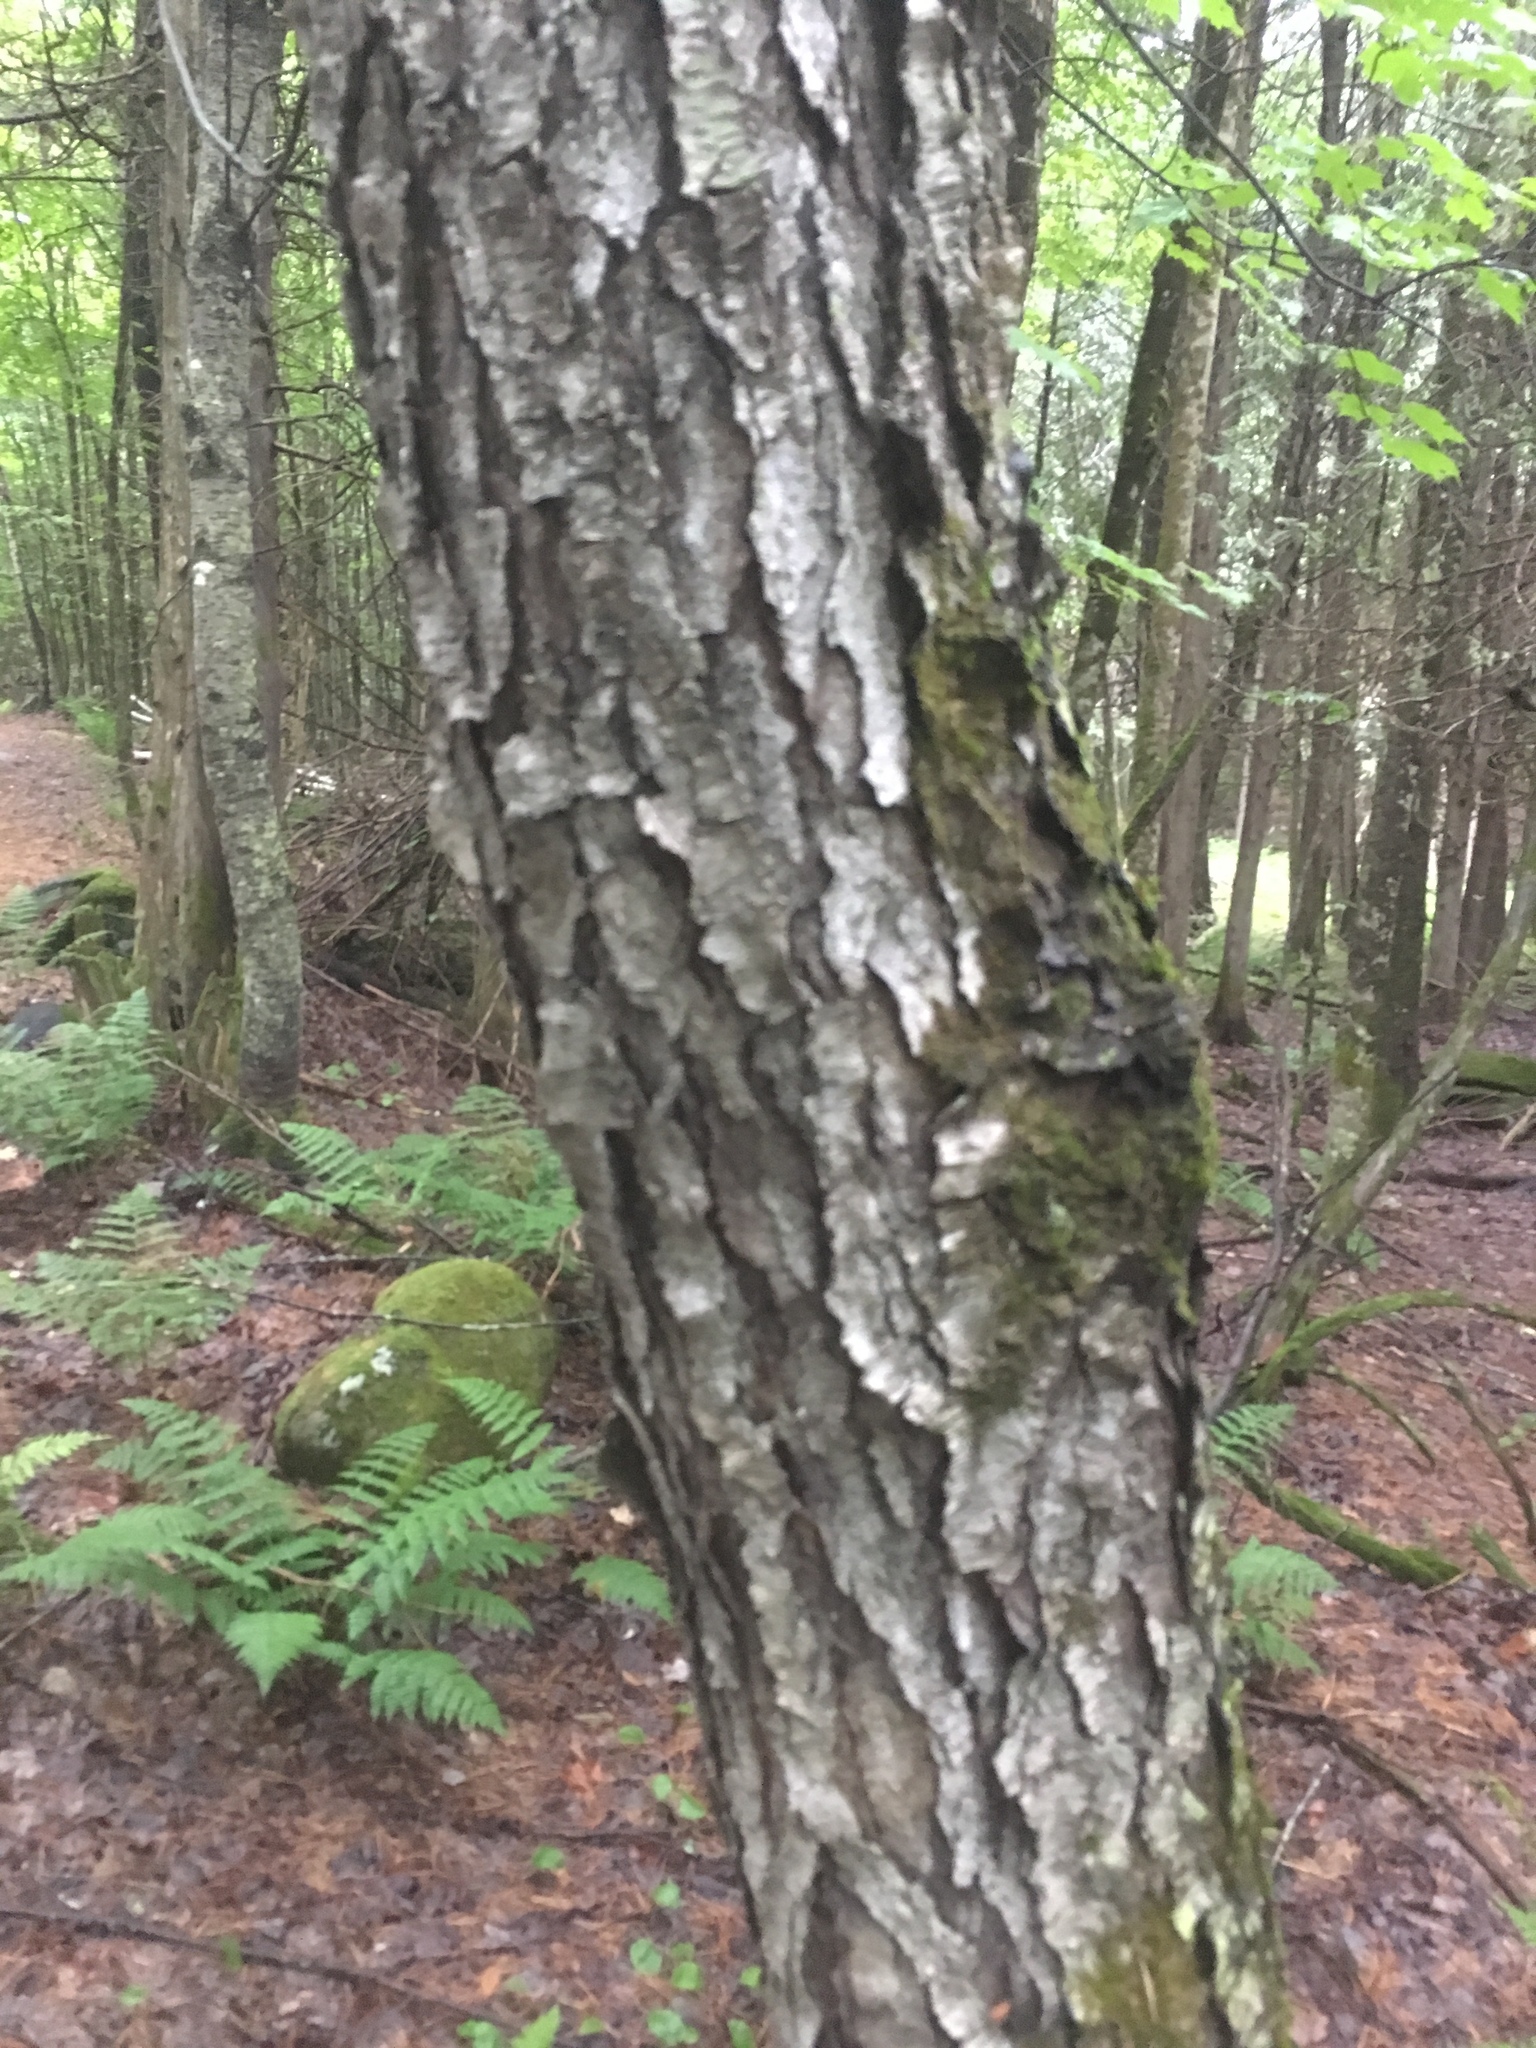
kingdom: Plantae
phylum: Tracheophyta
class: Magnoliopsida
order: Rosales
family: Rosaceae
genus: Prunus
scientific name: Prunus serotina
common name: Black cherry
